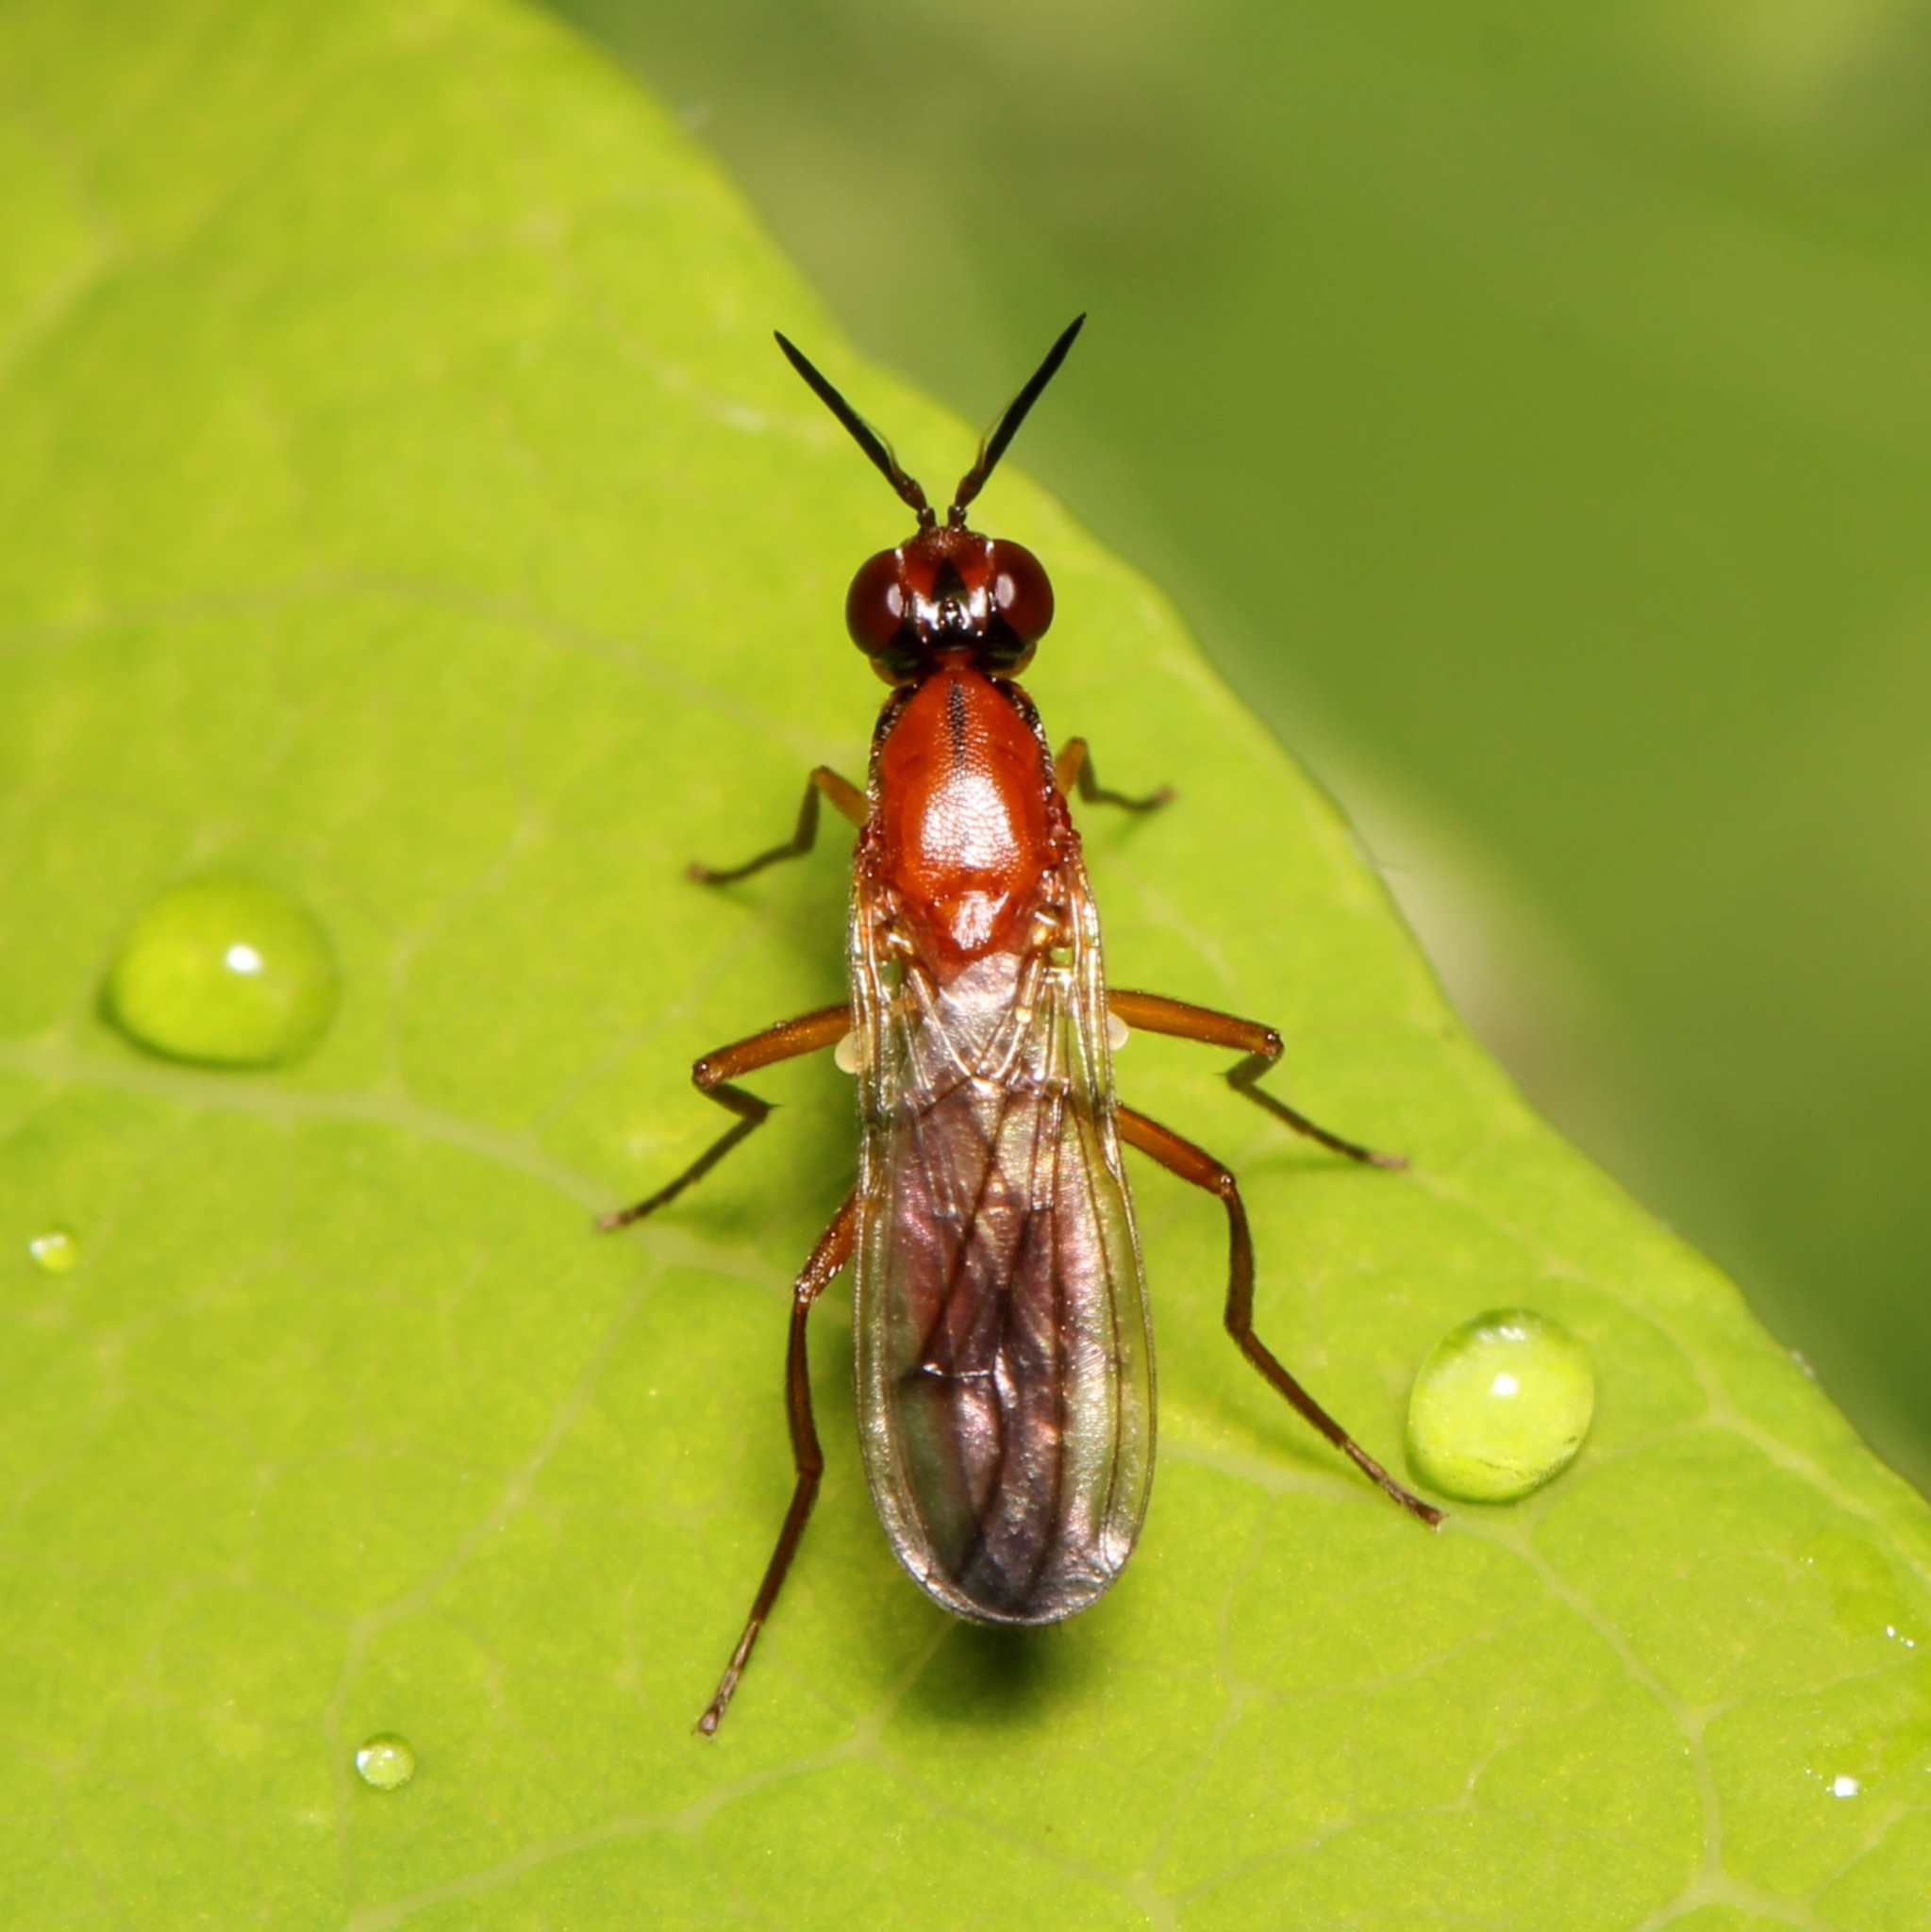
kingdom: Animalia
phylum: Arthropoda
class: Insecta
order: Diptera
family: Psilidae
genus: Loxocera
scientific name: Loxocera cylindrica
